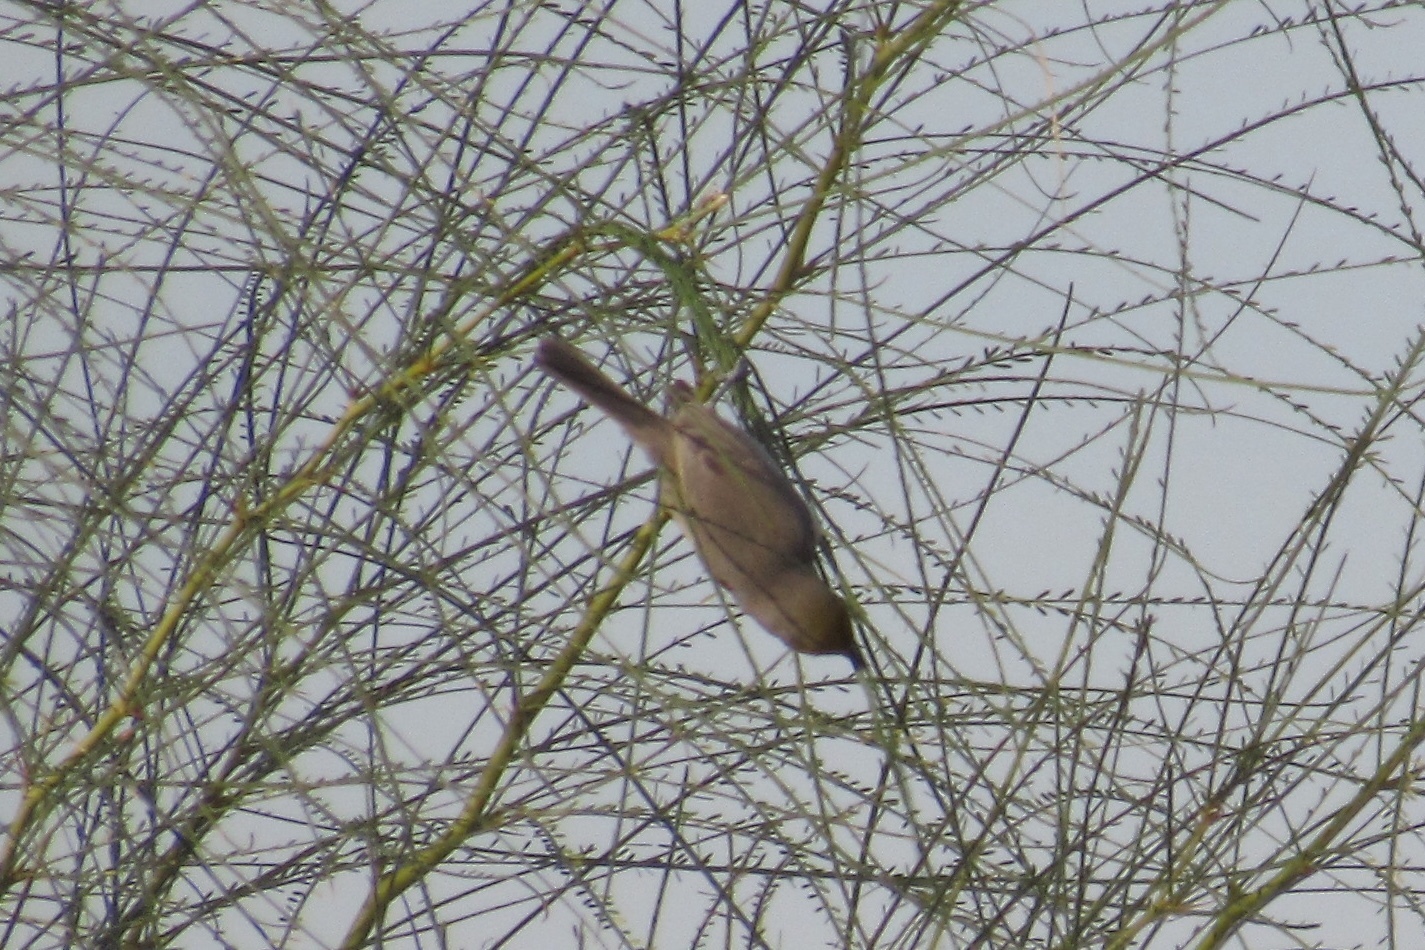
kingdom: Animalia
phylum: Chordata
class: Aves
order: Passeriformes
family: Remizidae
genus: Auriparus
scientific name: Auriparus flaviceps
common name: Verdin
